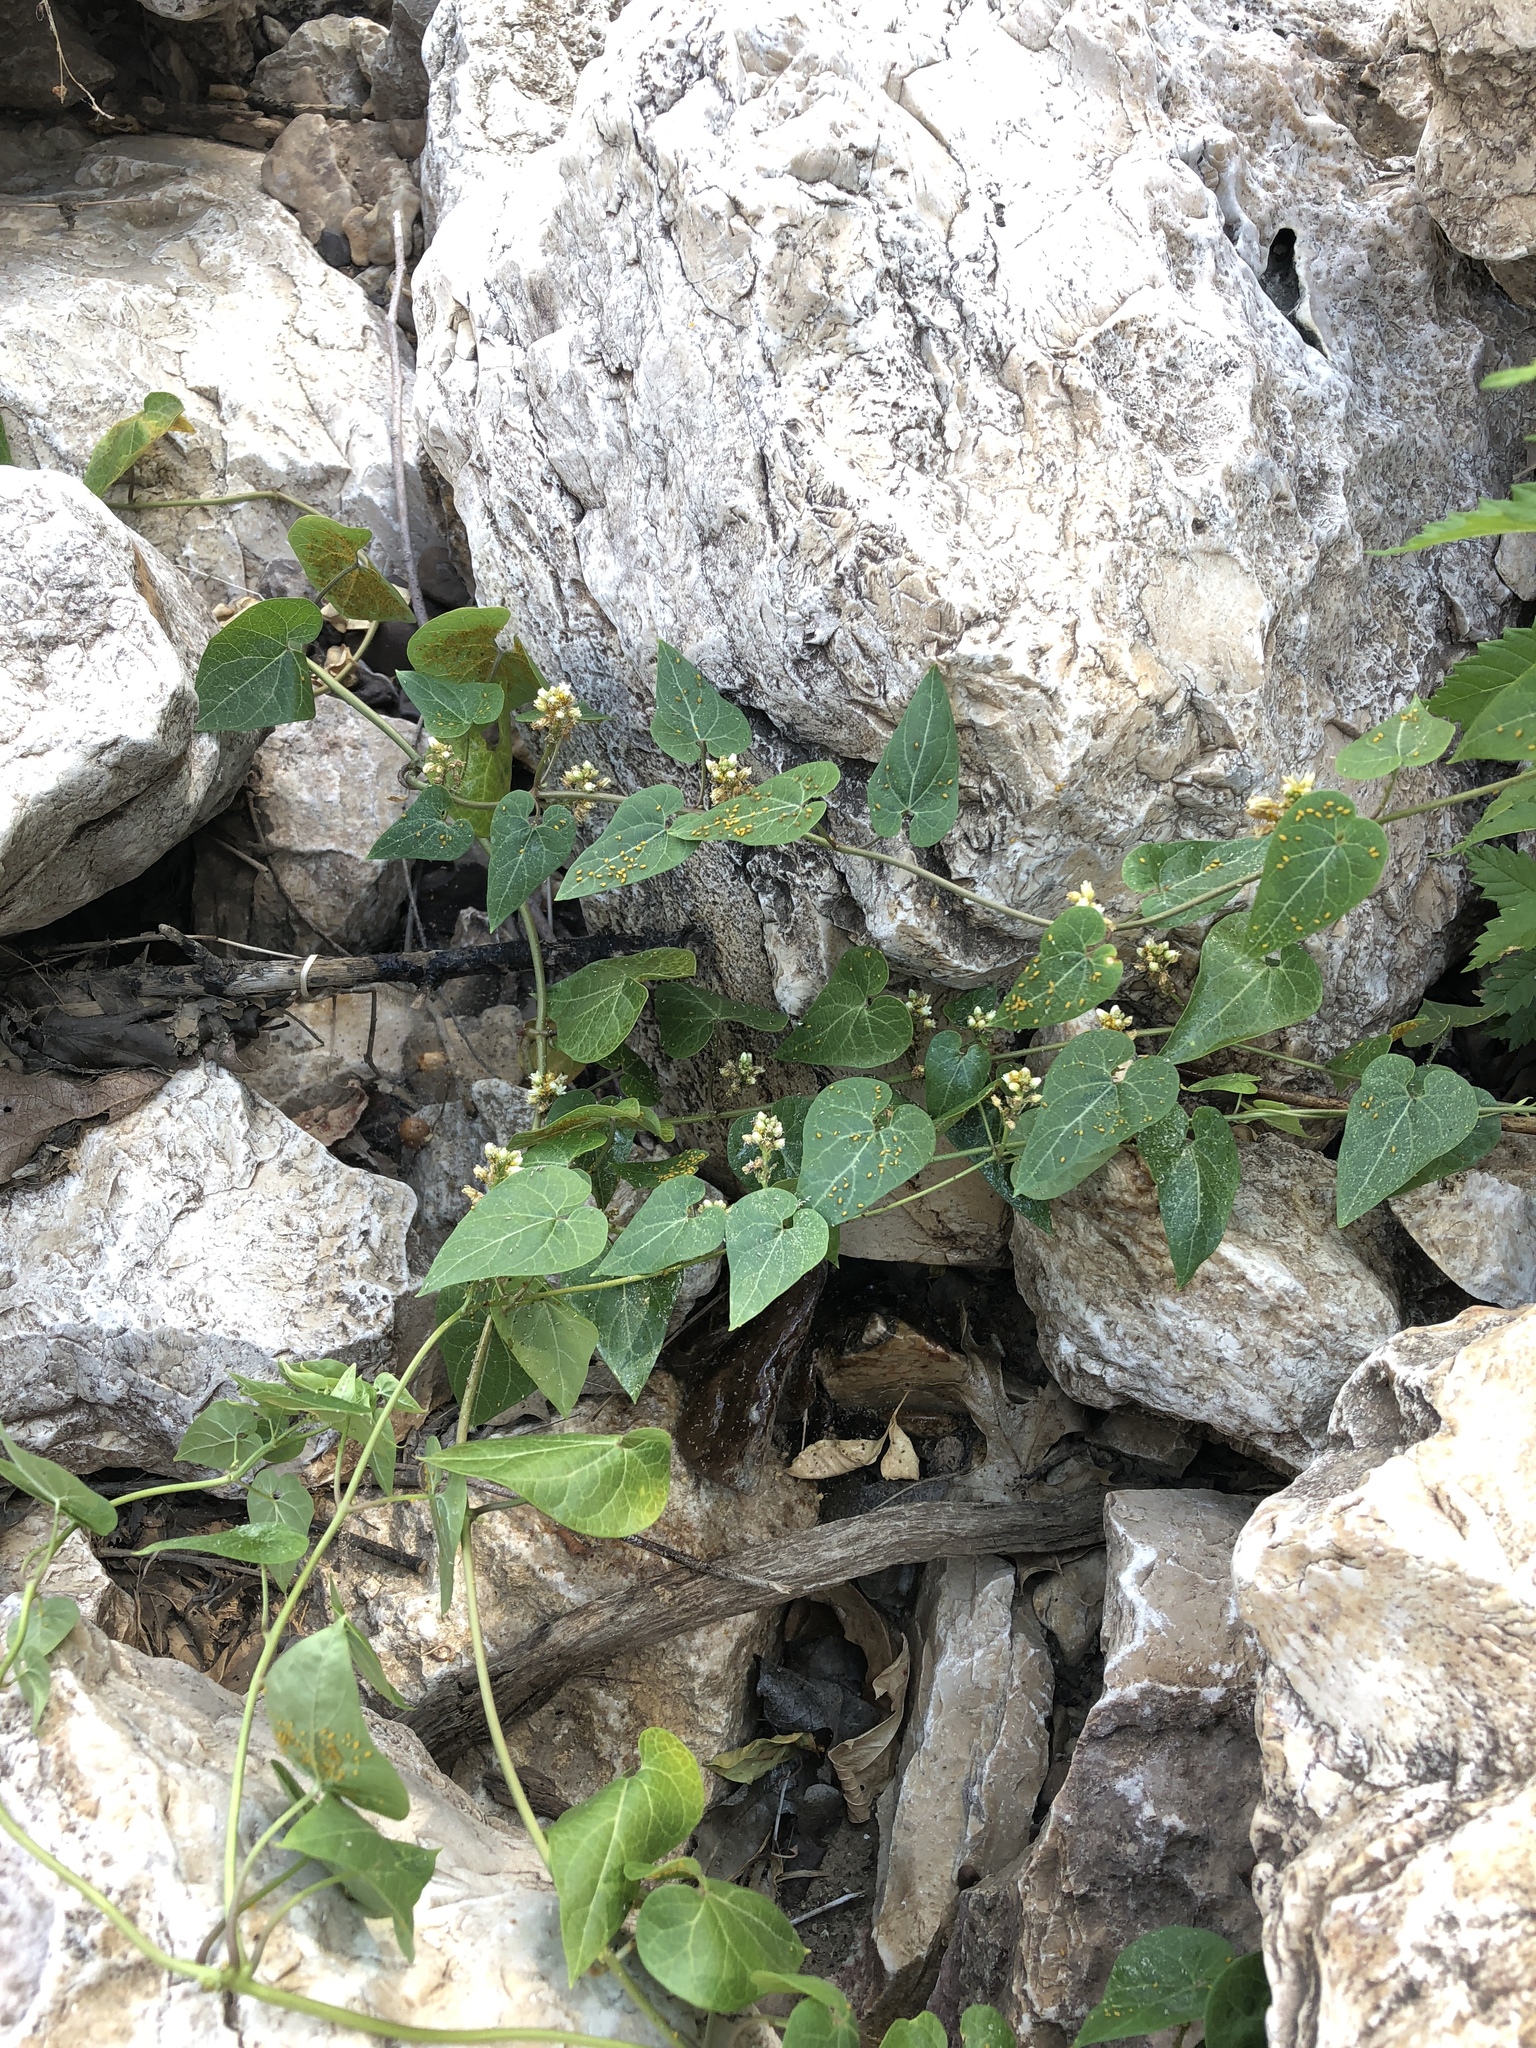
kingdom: Plantae
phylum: Tracheophyta
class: Magnoliopsida
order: Gentianales
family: Apocynaceae
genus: Cynanchum
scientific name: Cynanchum laeve
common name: Sandvine
